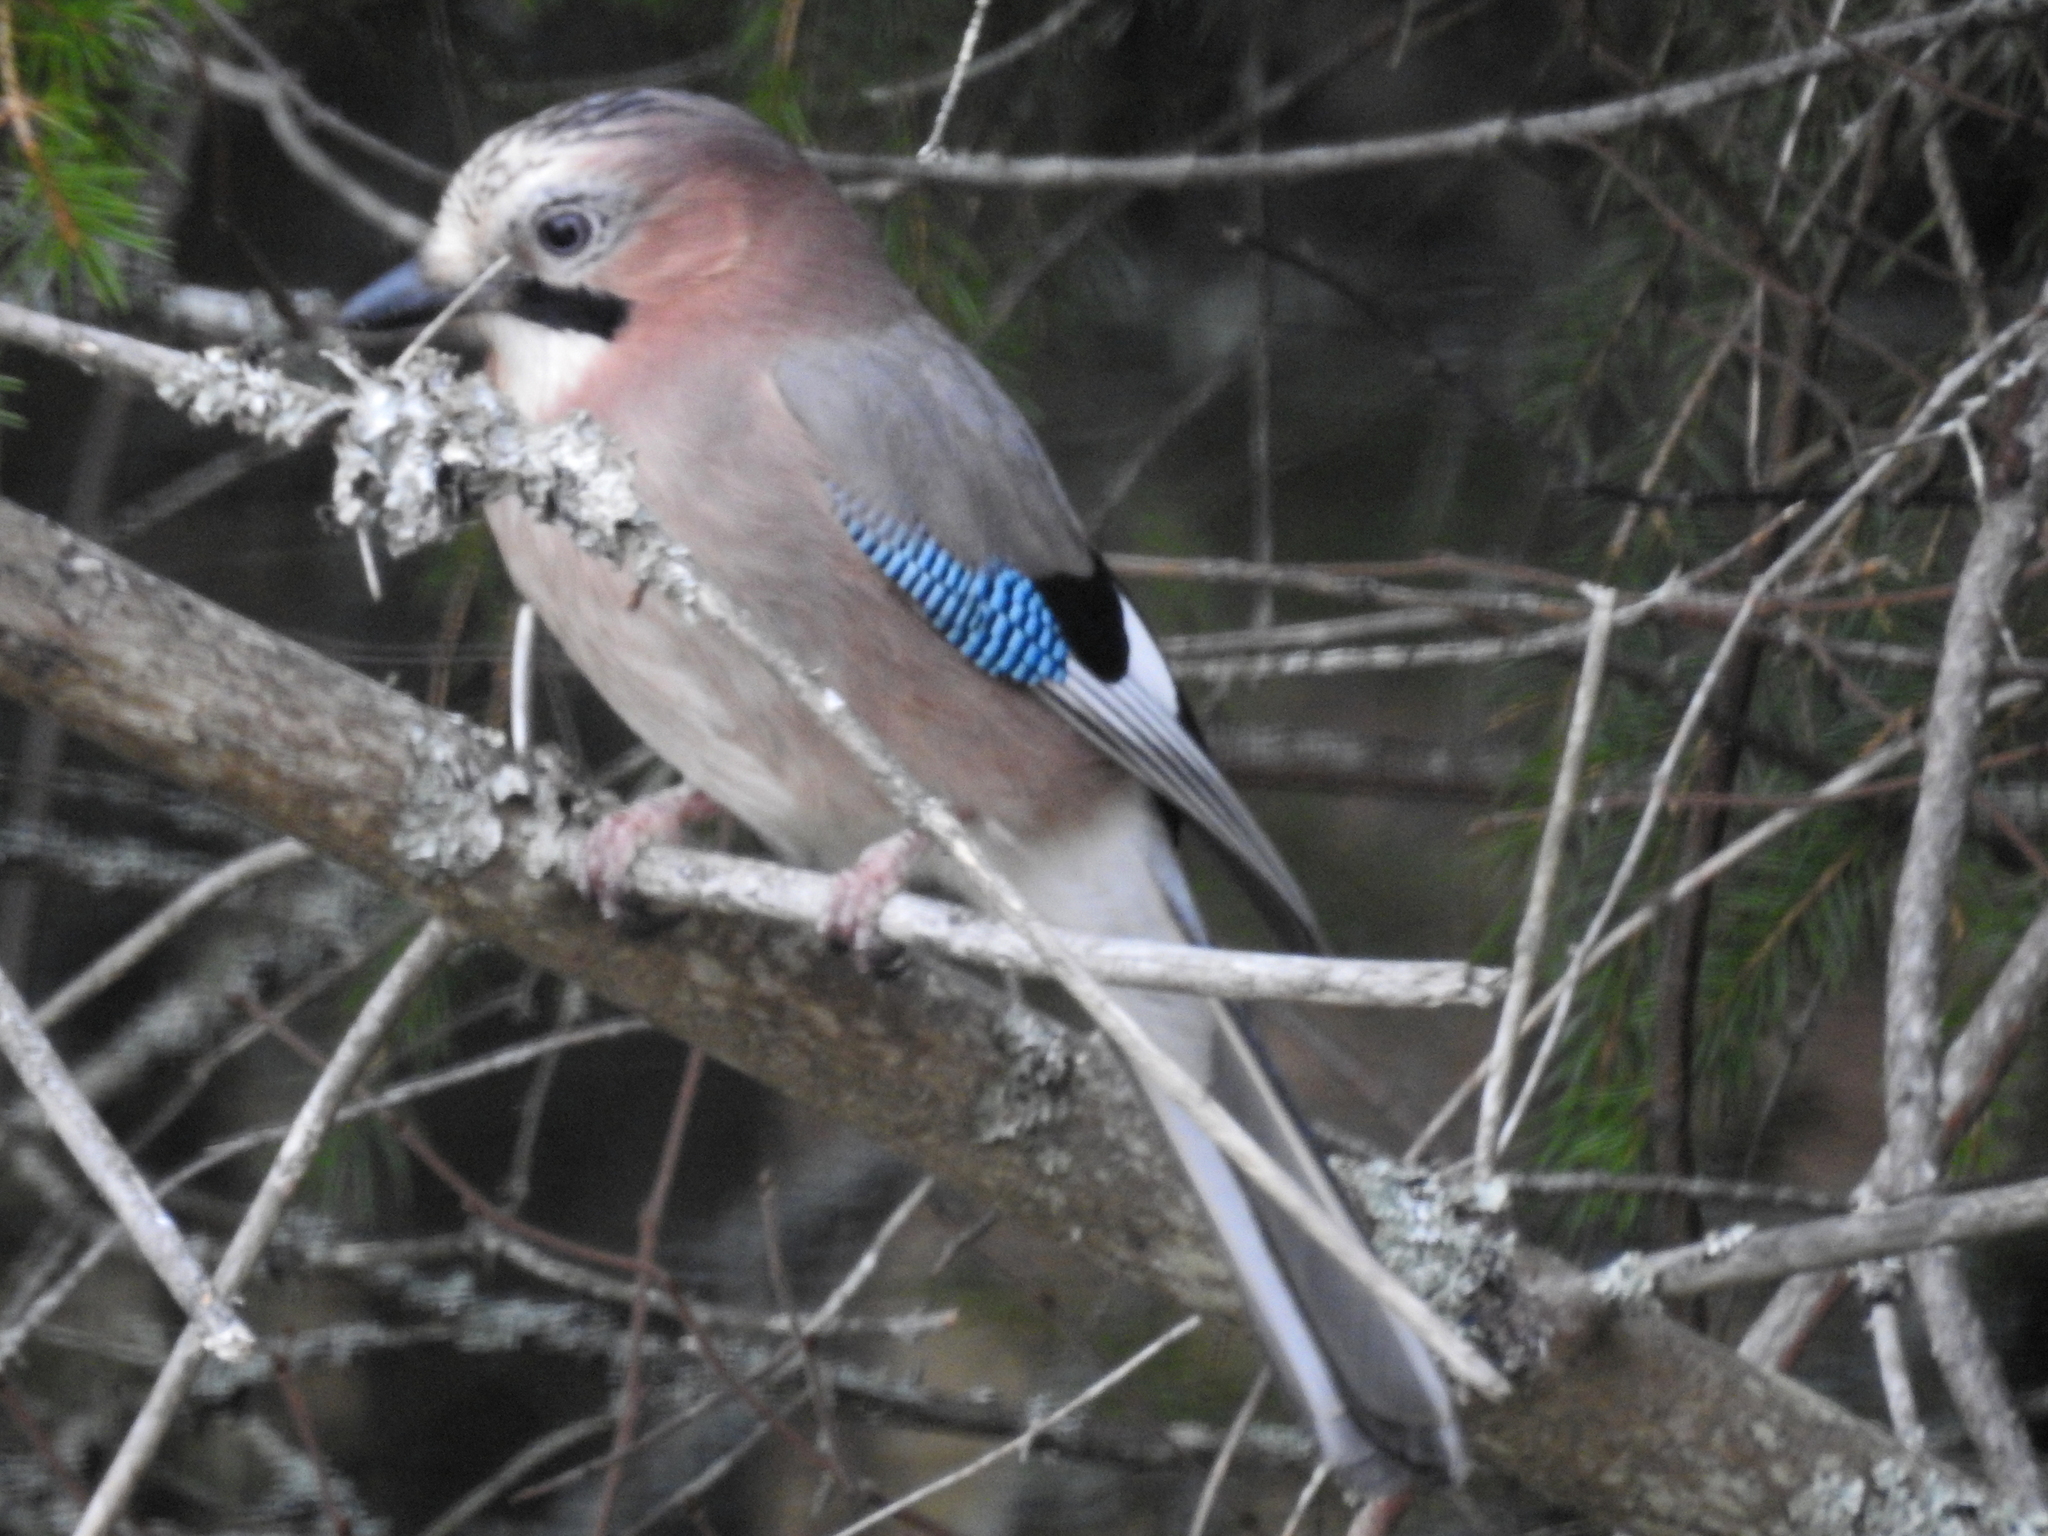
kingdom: Animalia
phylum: Chordata
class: Aves
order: Passeriformes
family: Corvidae
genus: Garrulus
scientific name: Garrulus glandarius
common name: Eurasian jay
